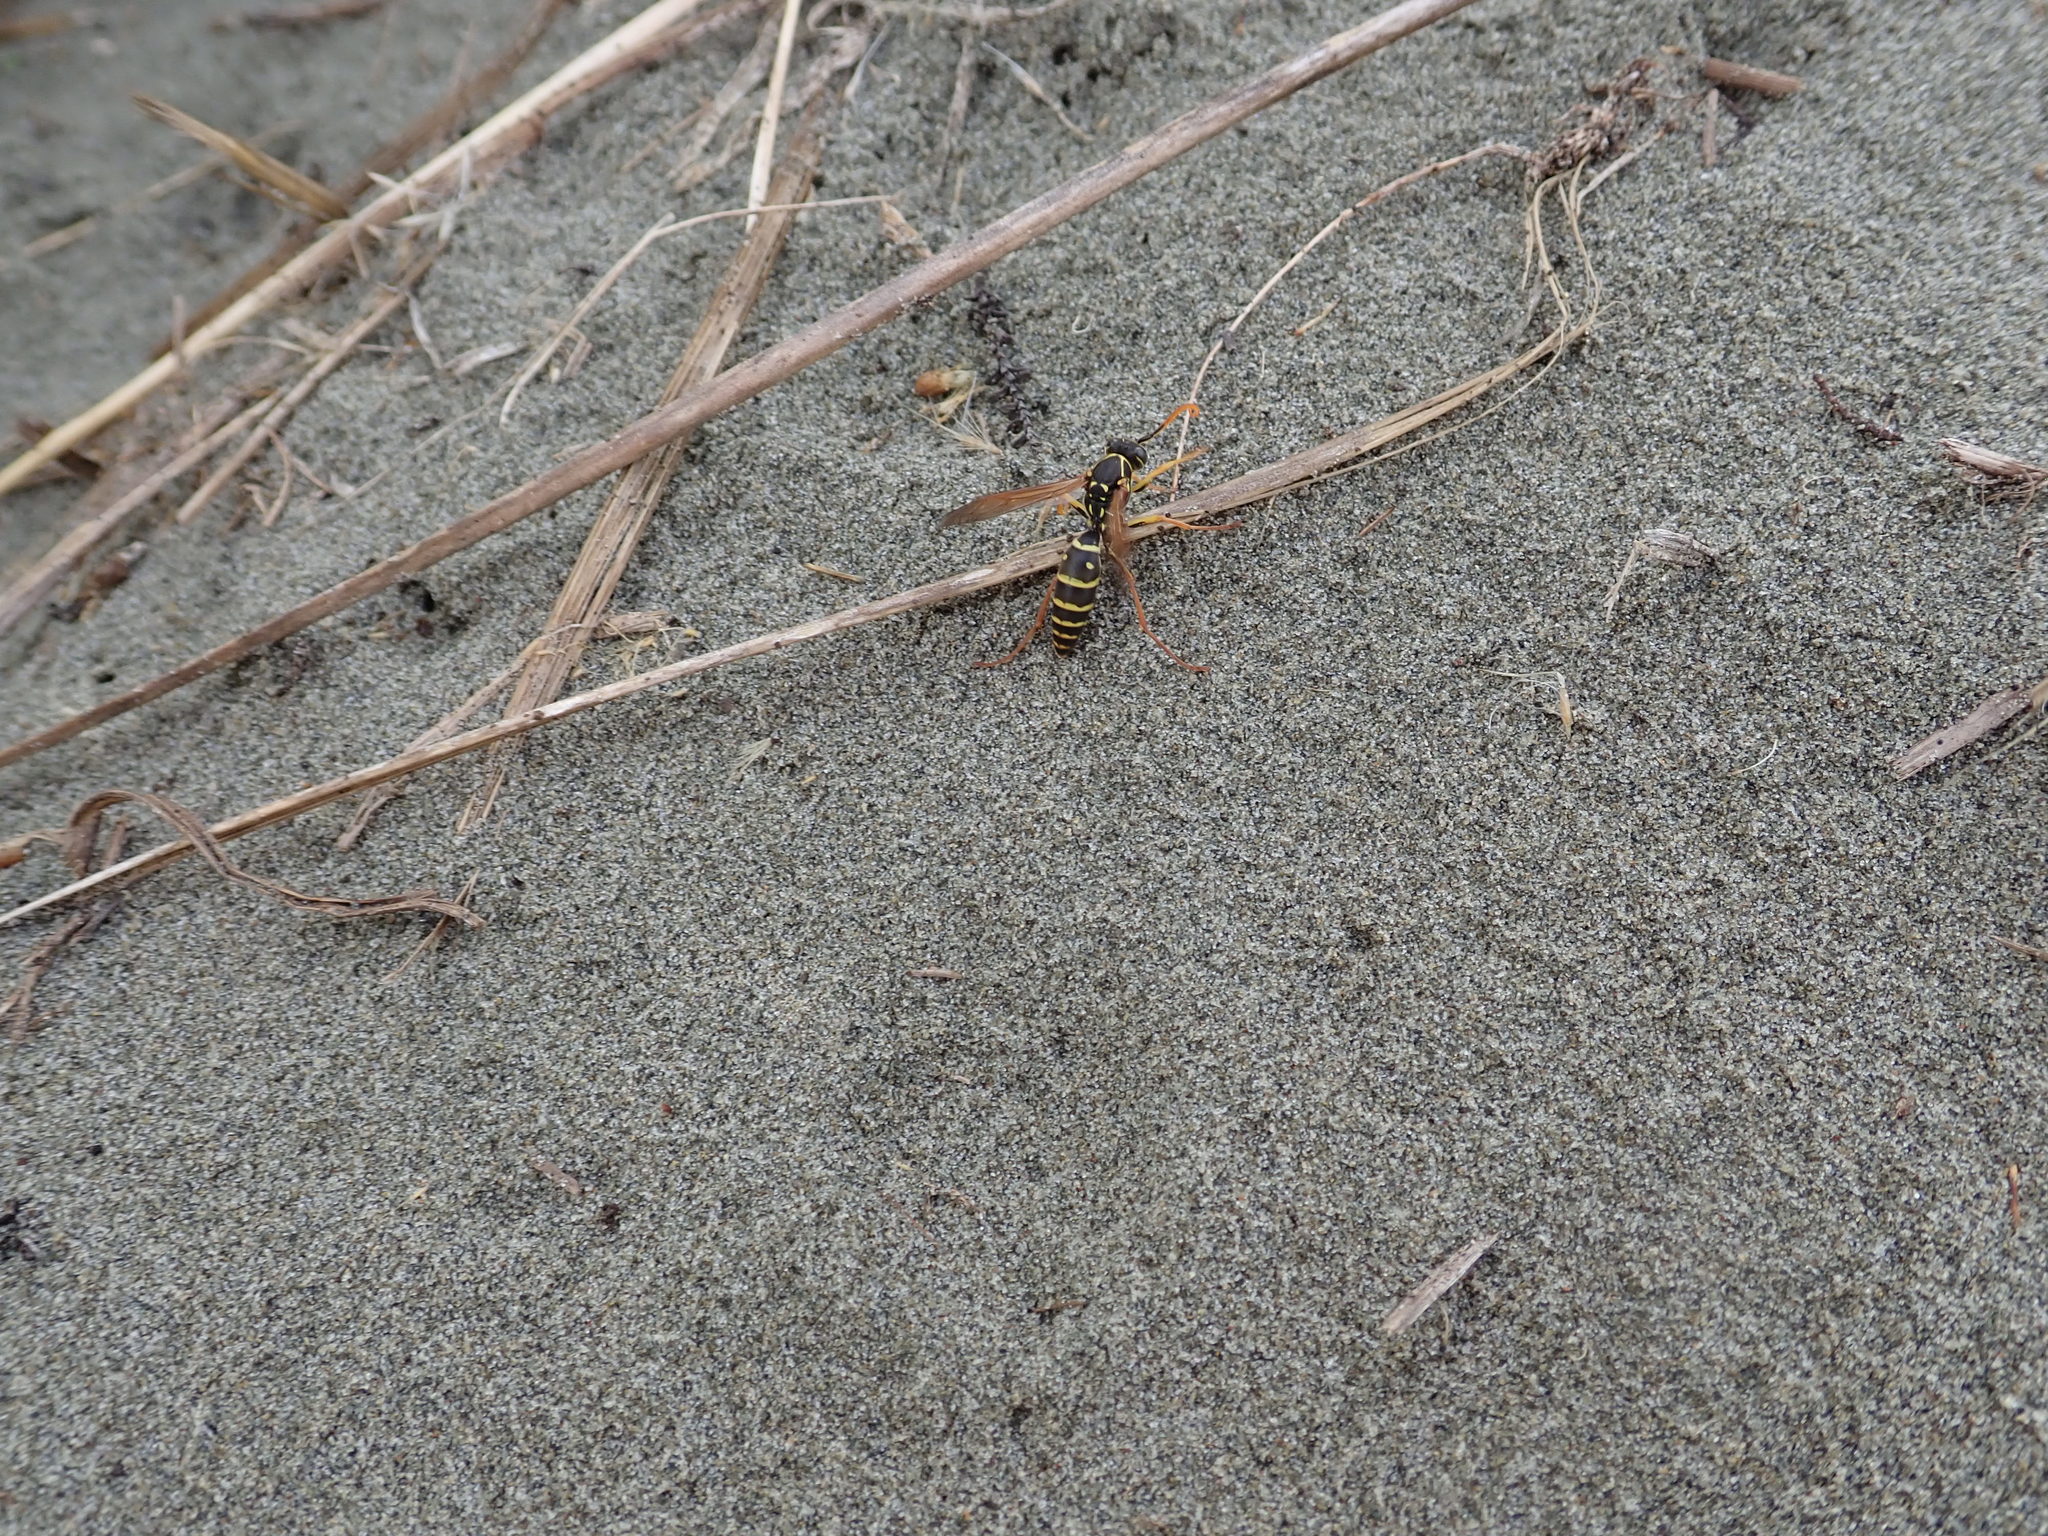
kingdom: Animalia
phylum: Arthropoda
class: Insecta
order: Hymenoptera
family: Eumenidae
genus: Polistes
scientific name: Polistes chinensis
